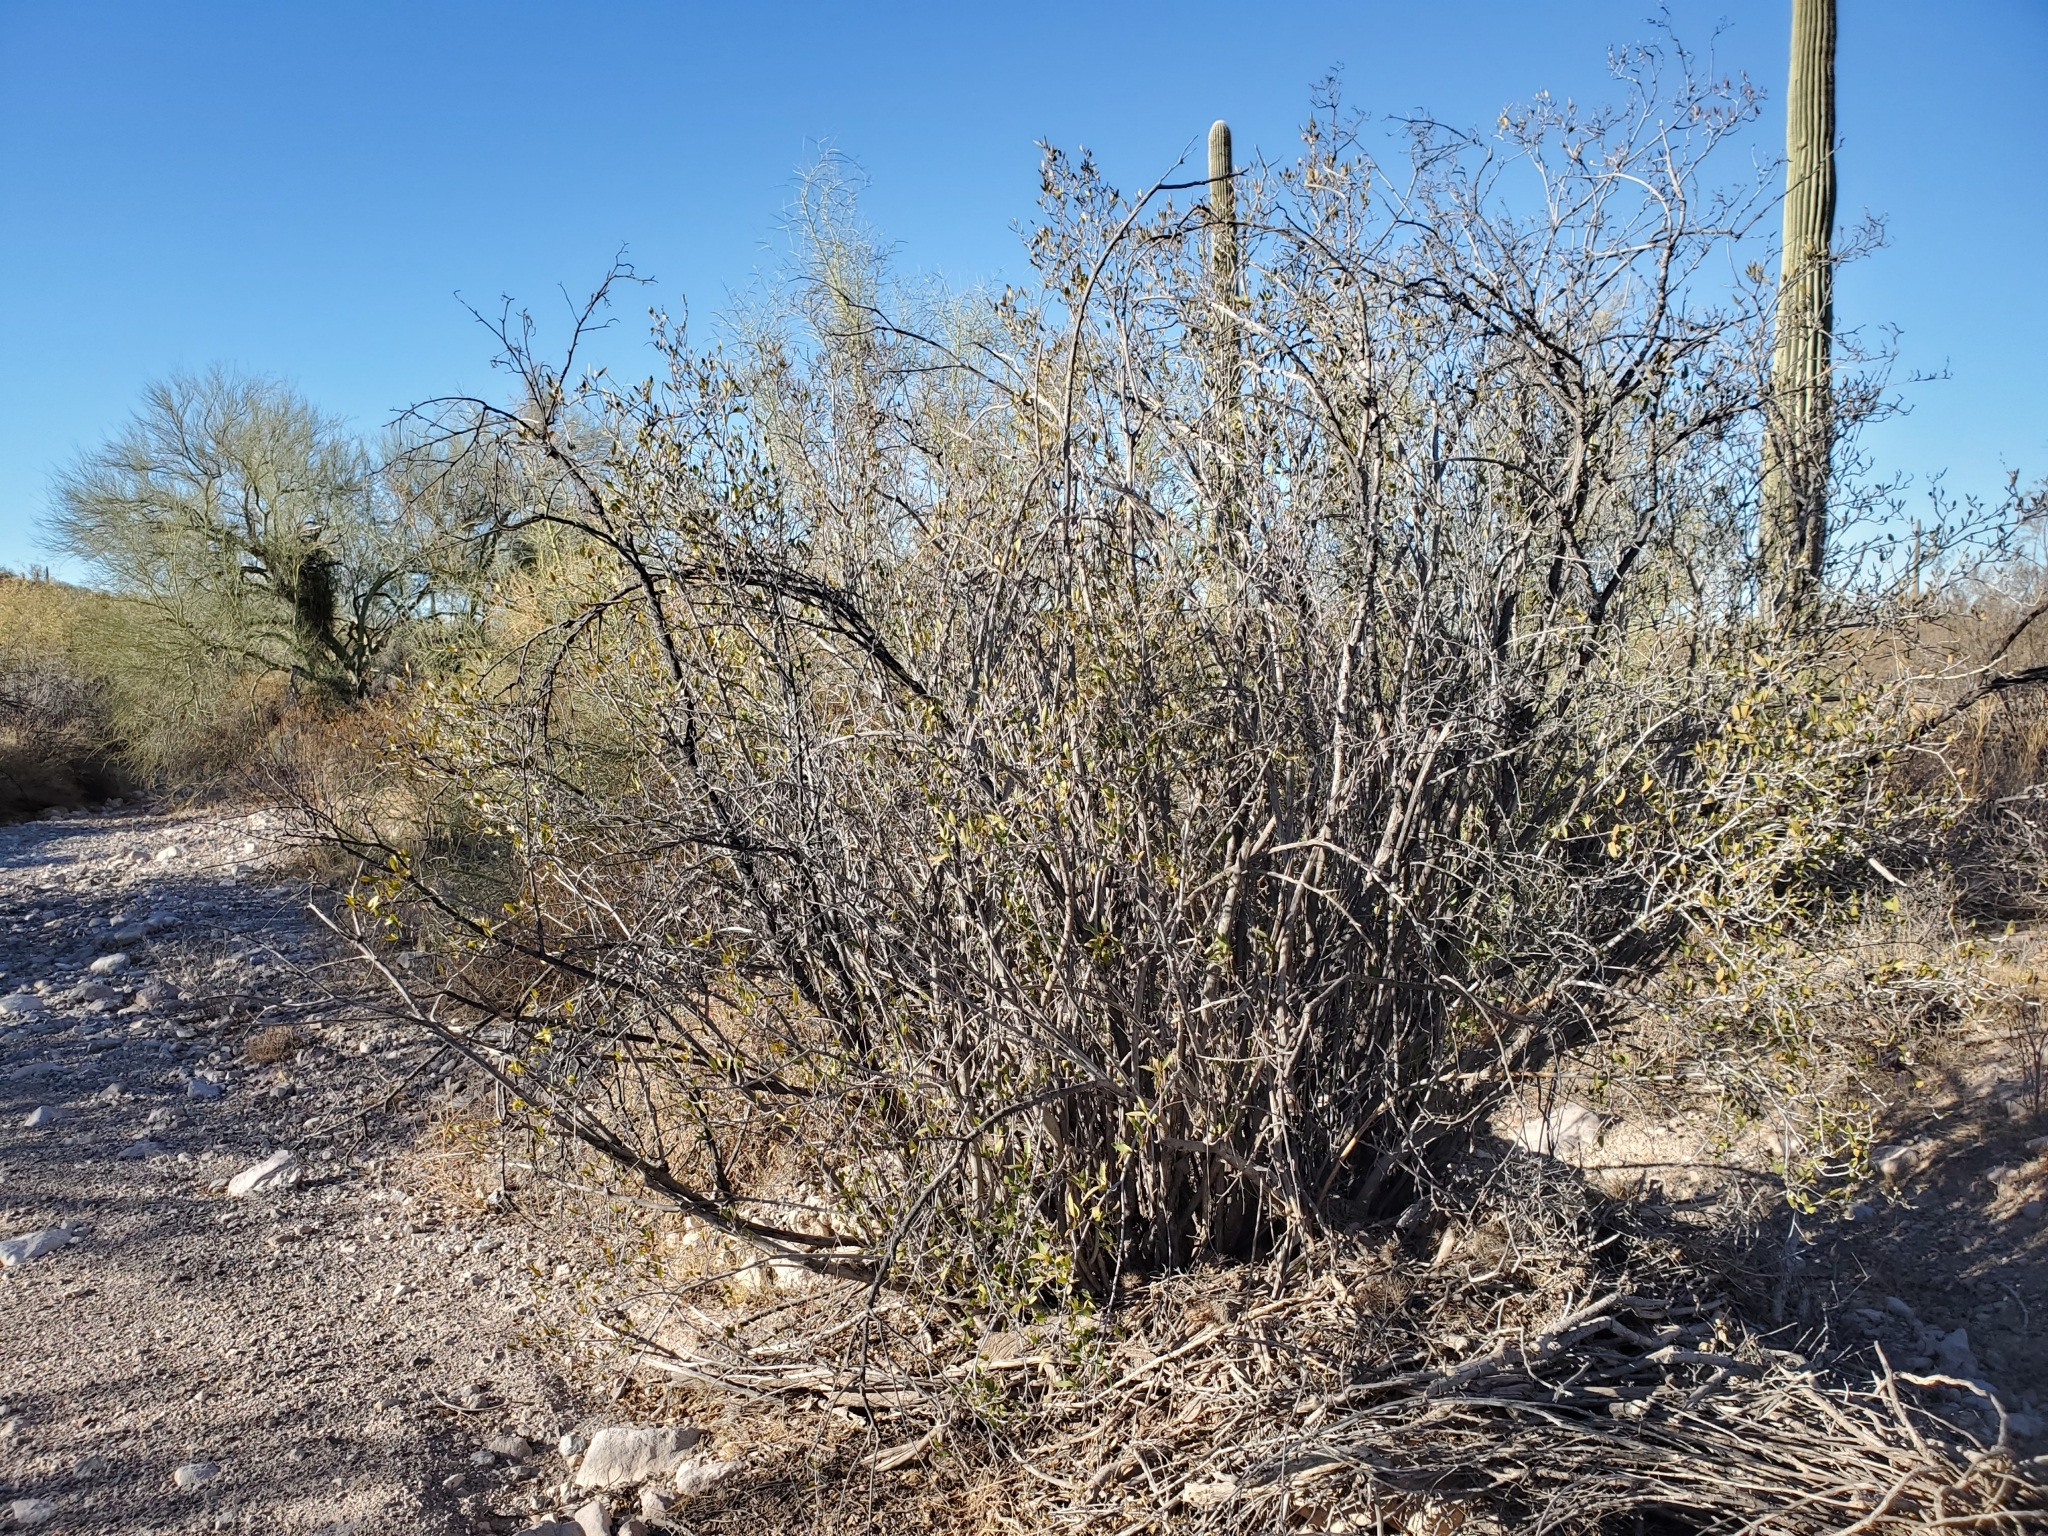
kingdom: Plantae
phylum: Tracheophyta
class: Magnoliopsida
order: Malpighiales
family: Euphorbiaceae
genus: Pleradenophora
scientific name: Pleradenophora bilocularis
